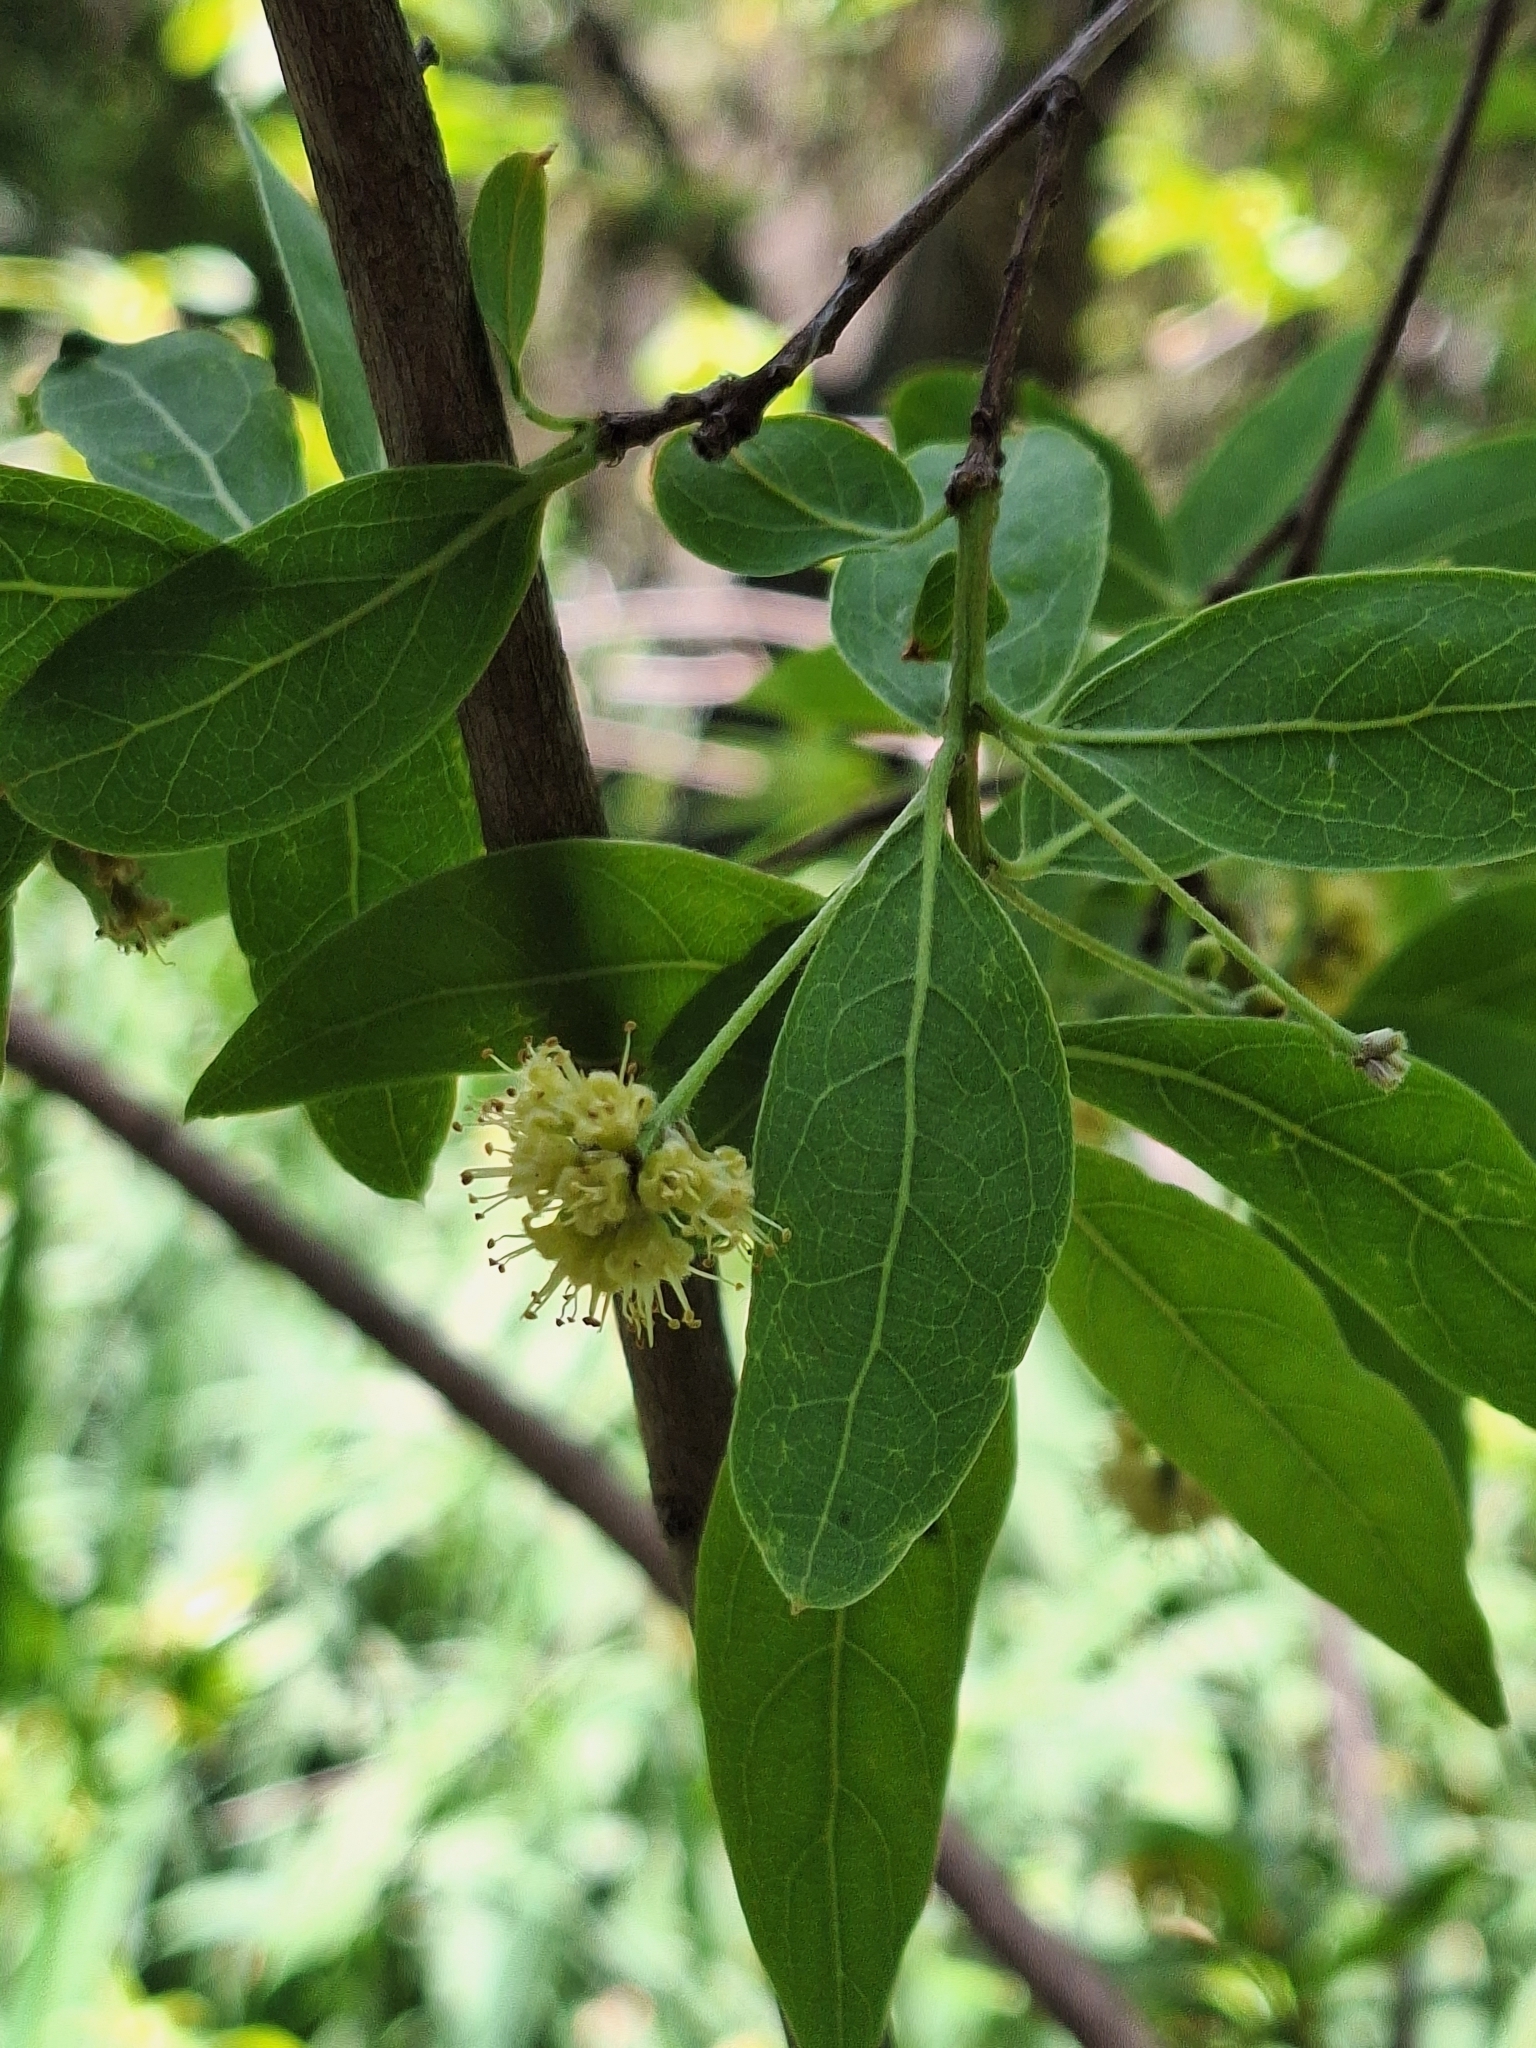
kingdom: Plantae
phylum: Tracheophyta
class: Magnoliopsida
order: Myrtales
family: Combretaceae
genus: Terminalia
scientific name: Terminalia australis
